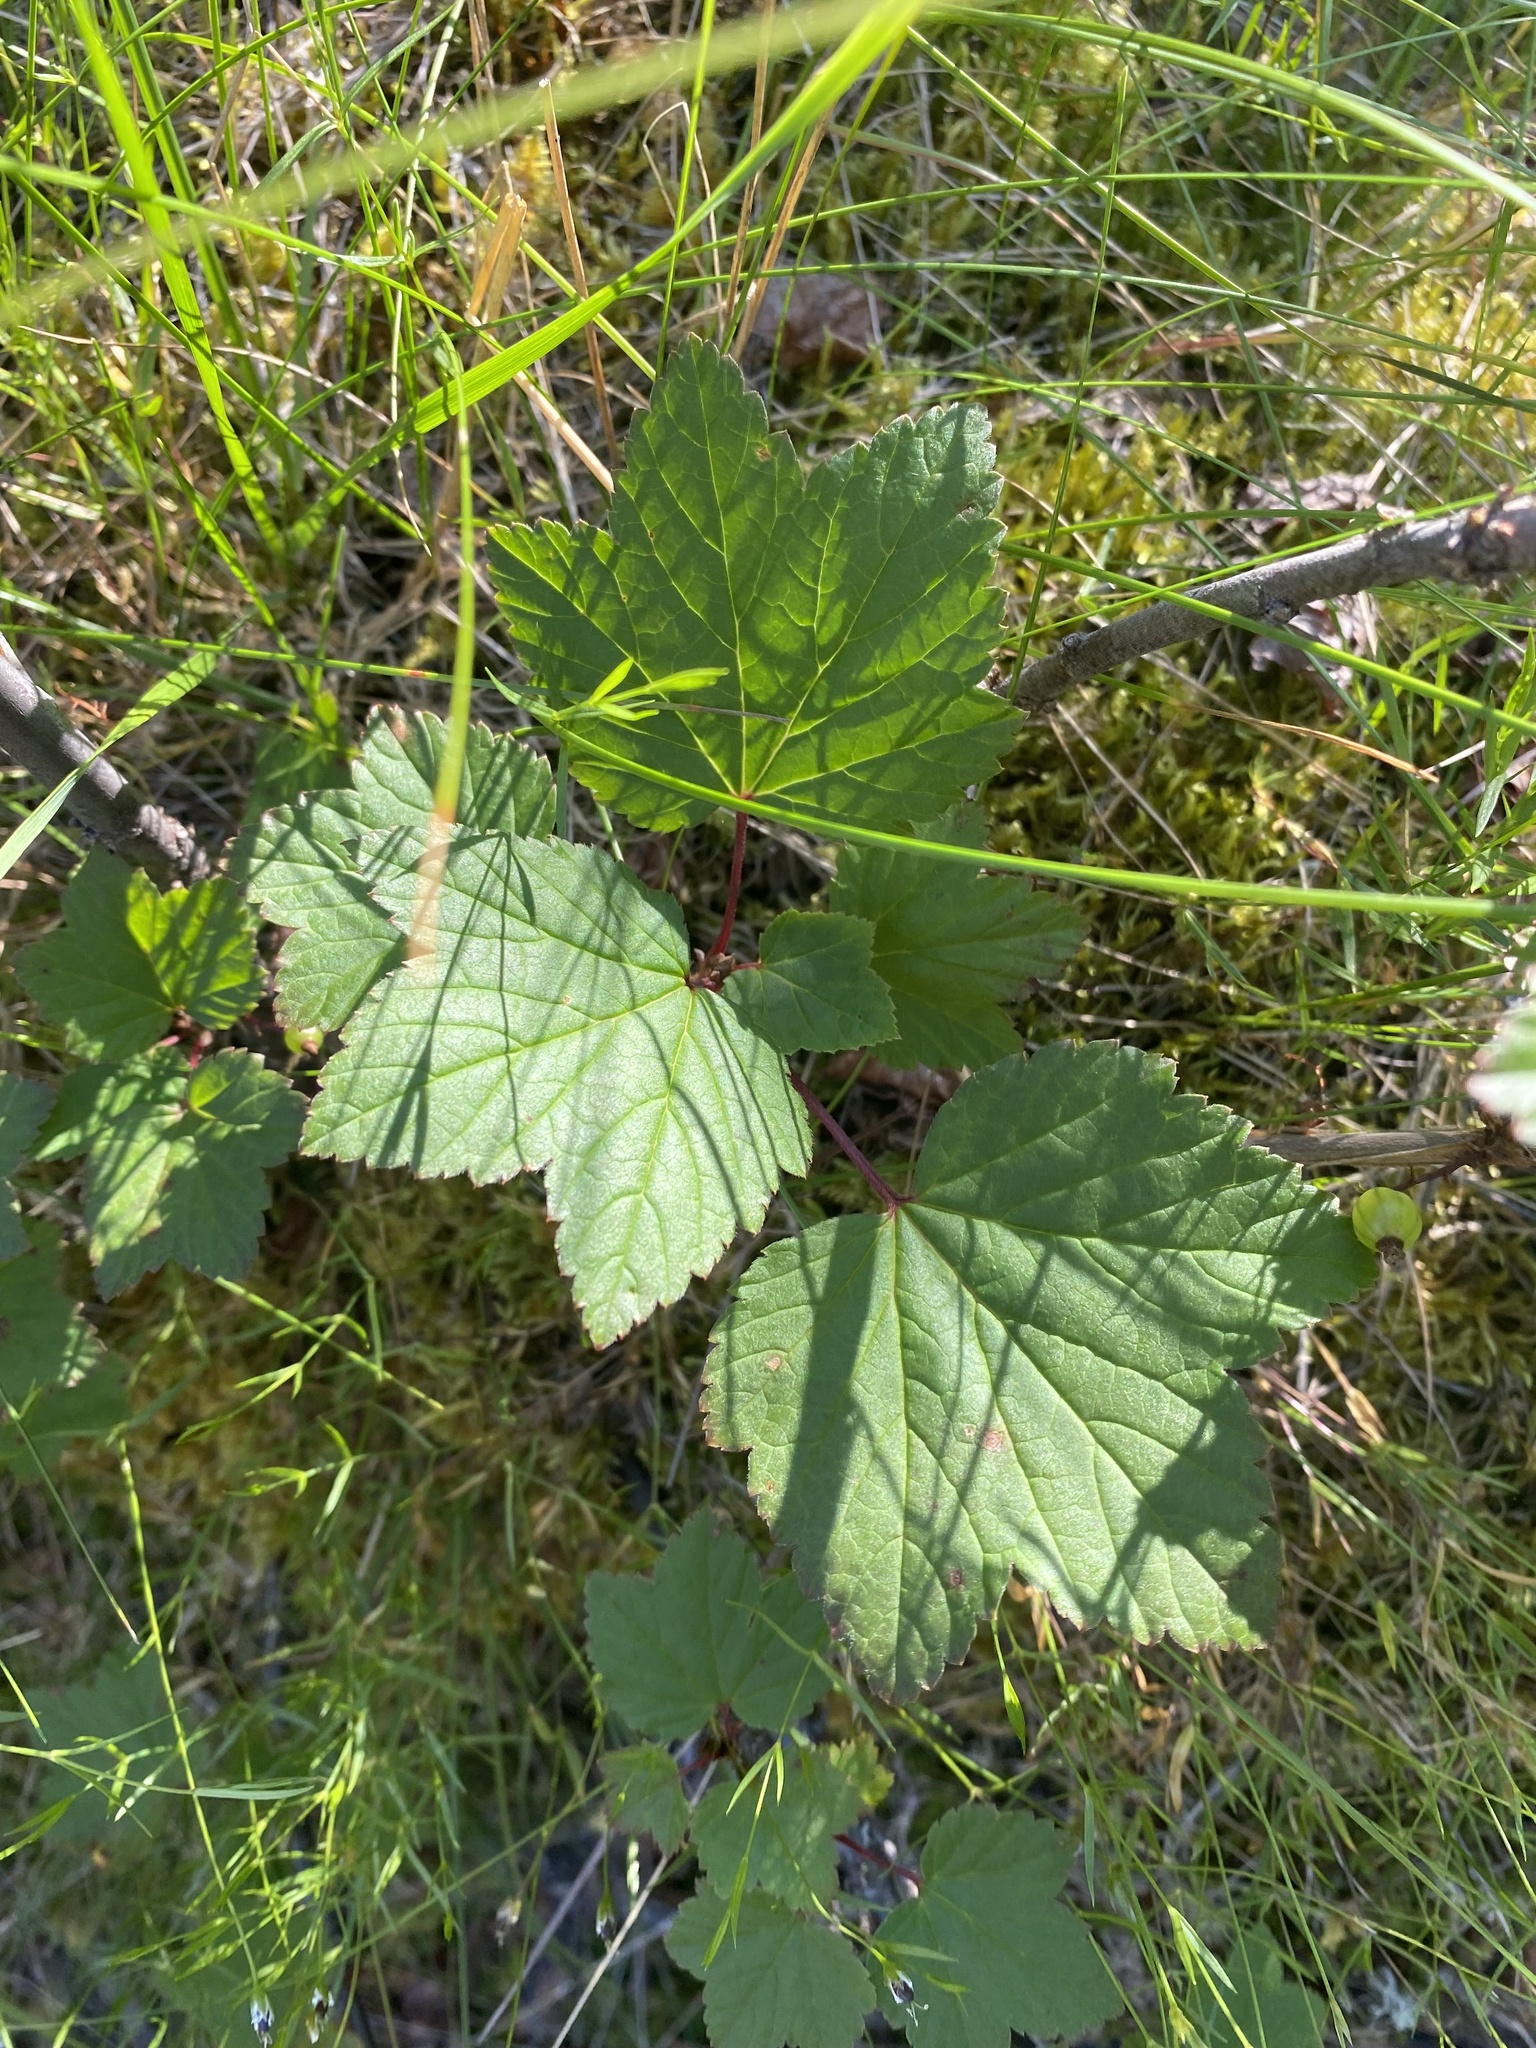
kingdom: Plantae
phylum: Tracheophyta
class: Magnoliopsida
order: Saxifragales
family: Grossulariaceae
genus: Ribes
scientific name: Ribes triste
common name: Swamp red currant
